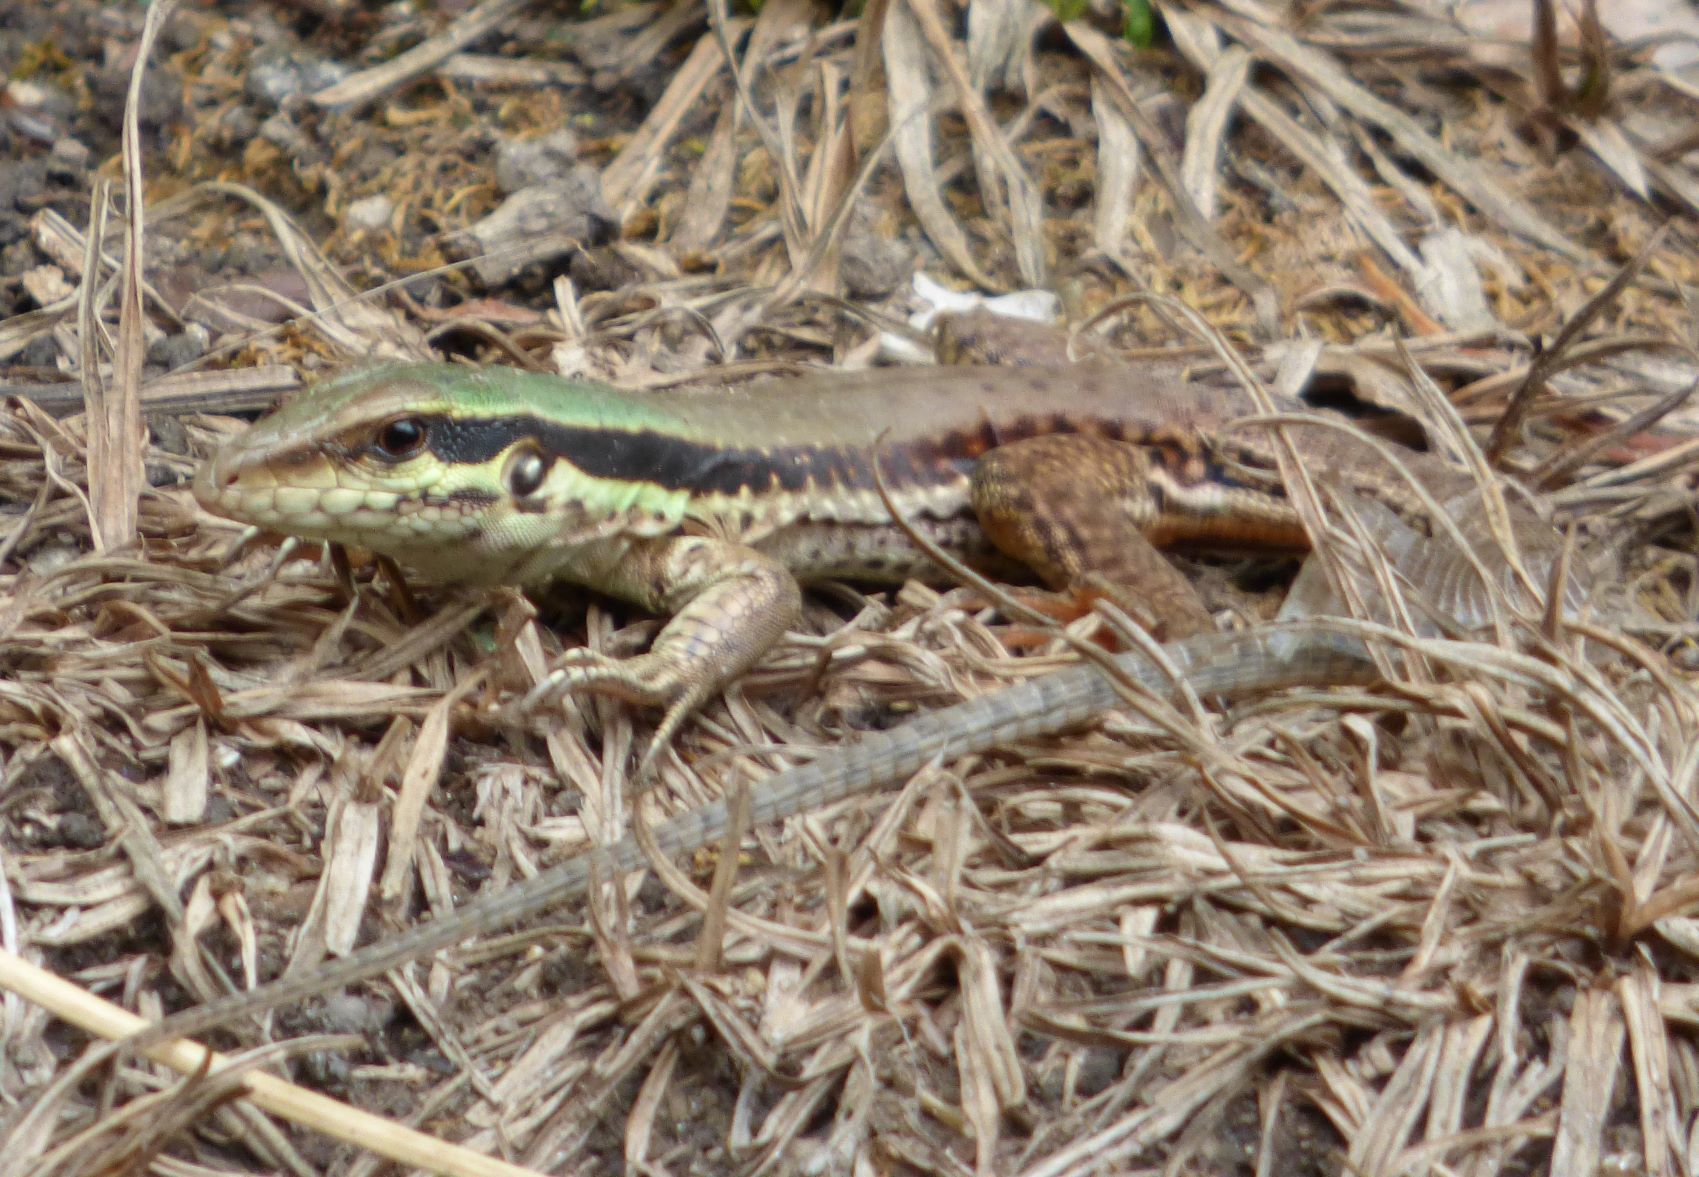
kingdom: Animalia
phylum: Chordata
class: Squamata
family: Teiidae
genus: Ameiva
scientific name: Ameiva atrigularis
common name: Venezuelan ameiva
